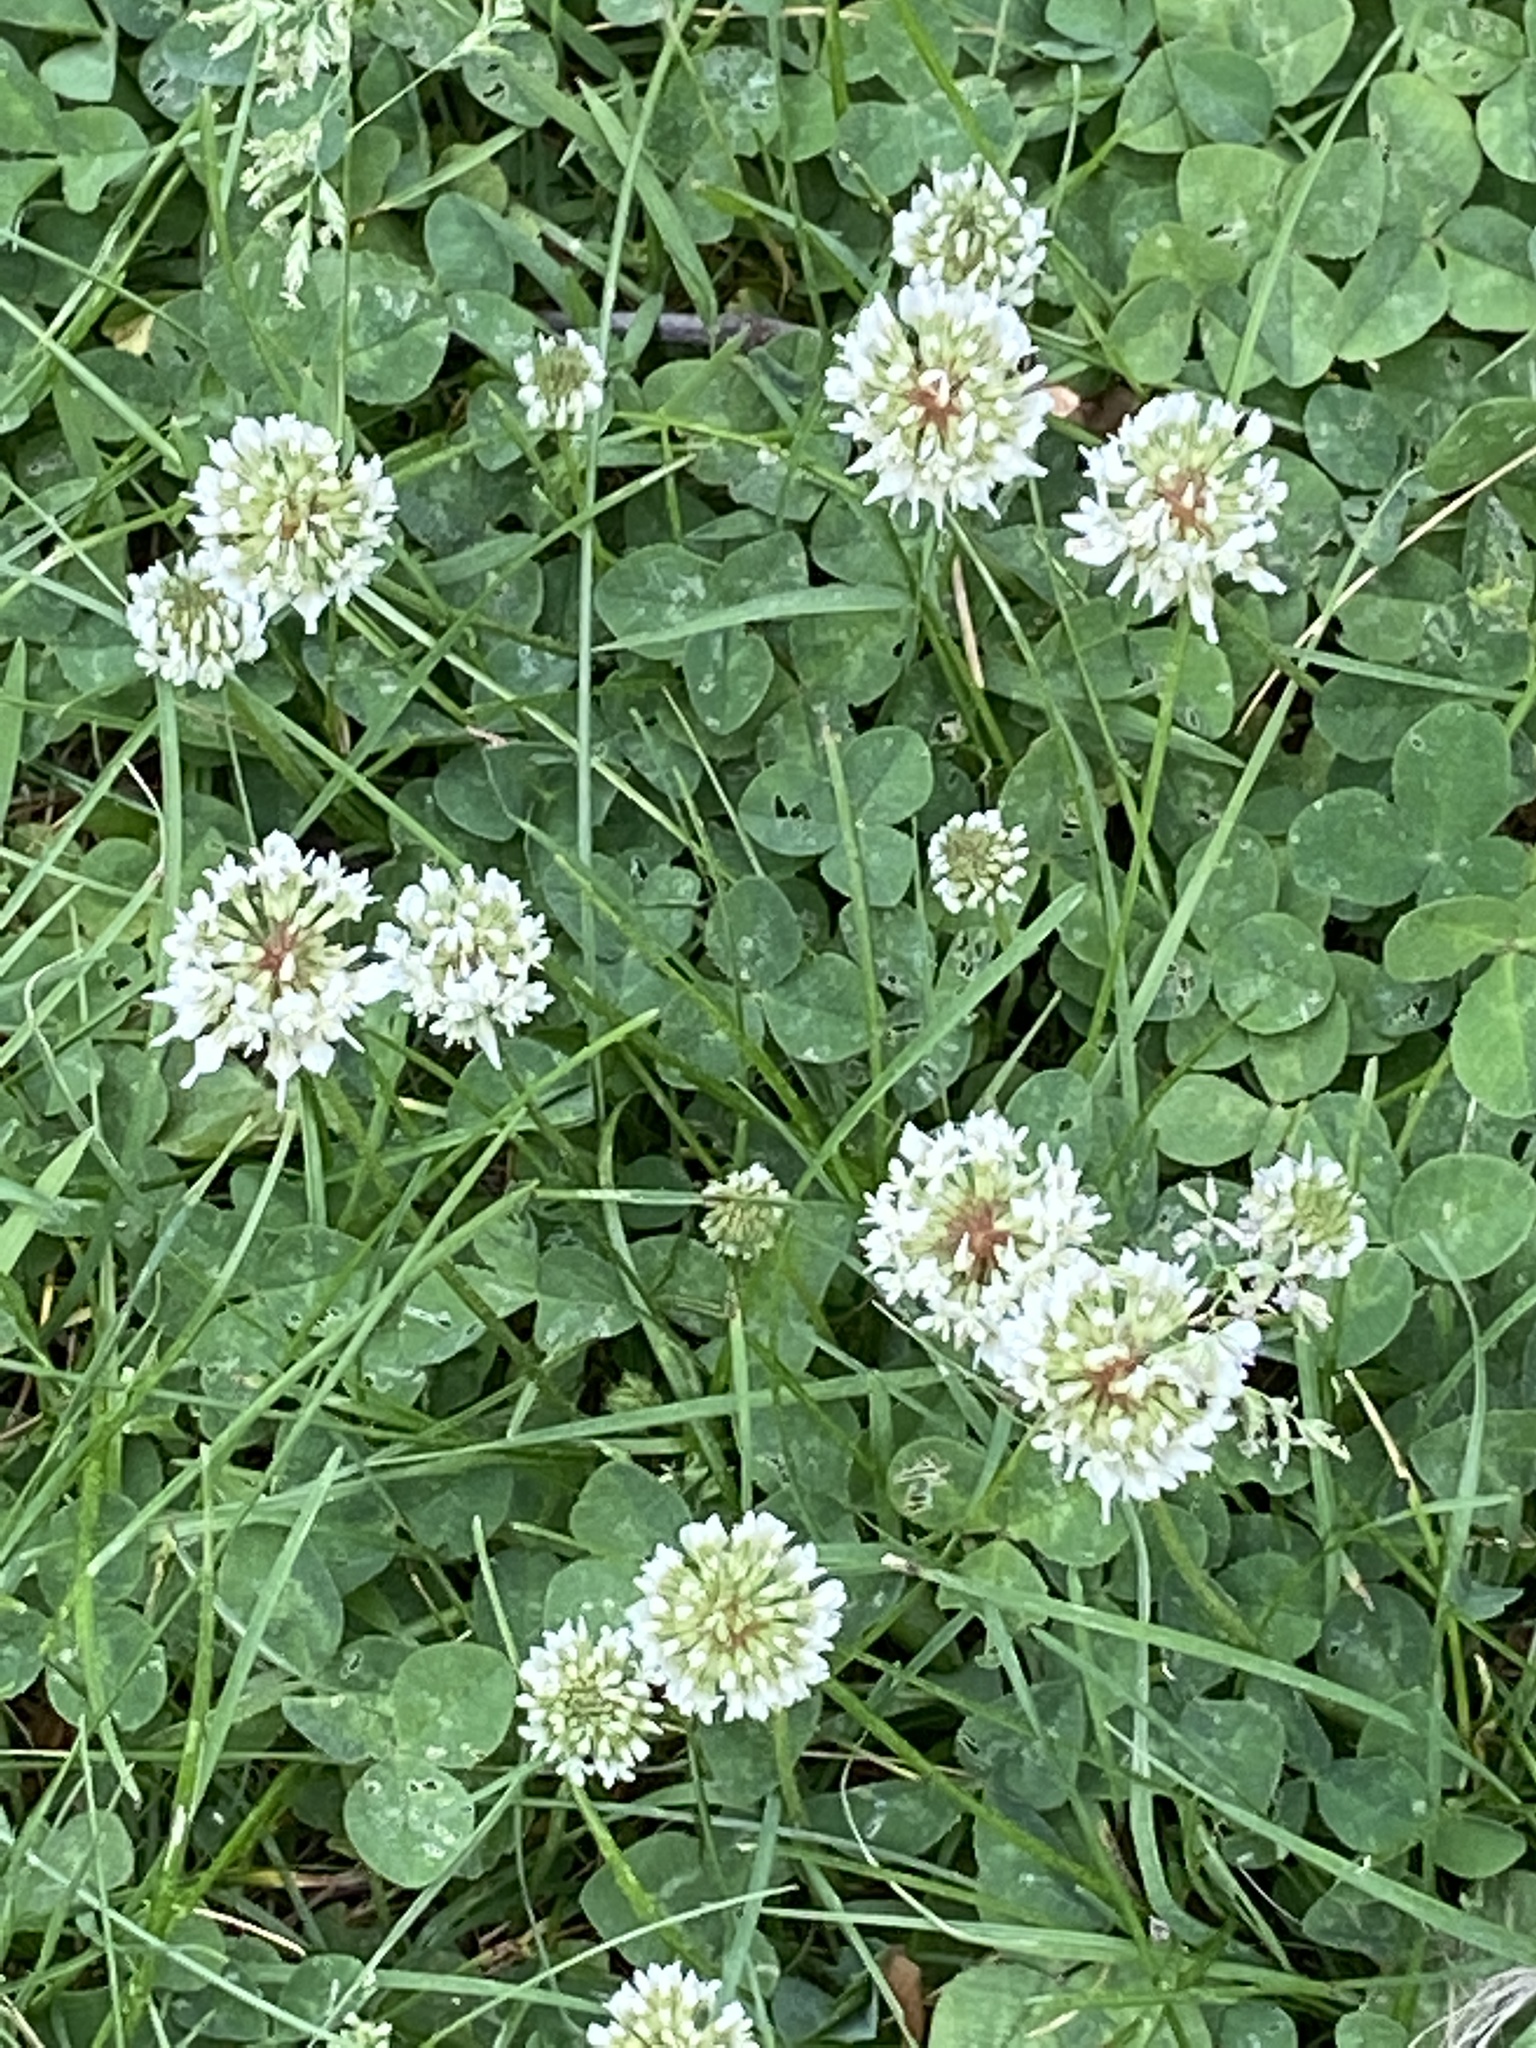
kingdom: Plantae
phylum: Tracheophyta
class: Magnoliopsida
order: Fabales
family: Fabaceae
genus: Trifolium
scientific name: Trifolium repens
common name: White clover
